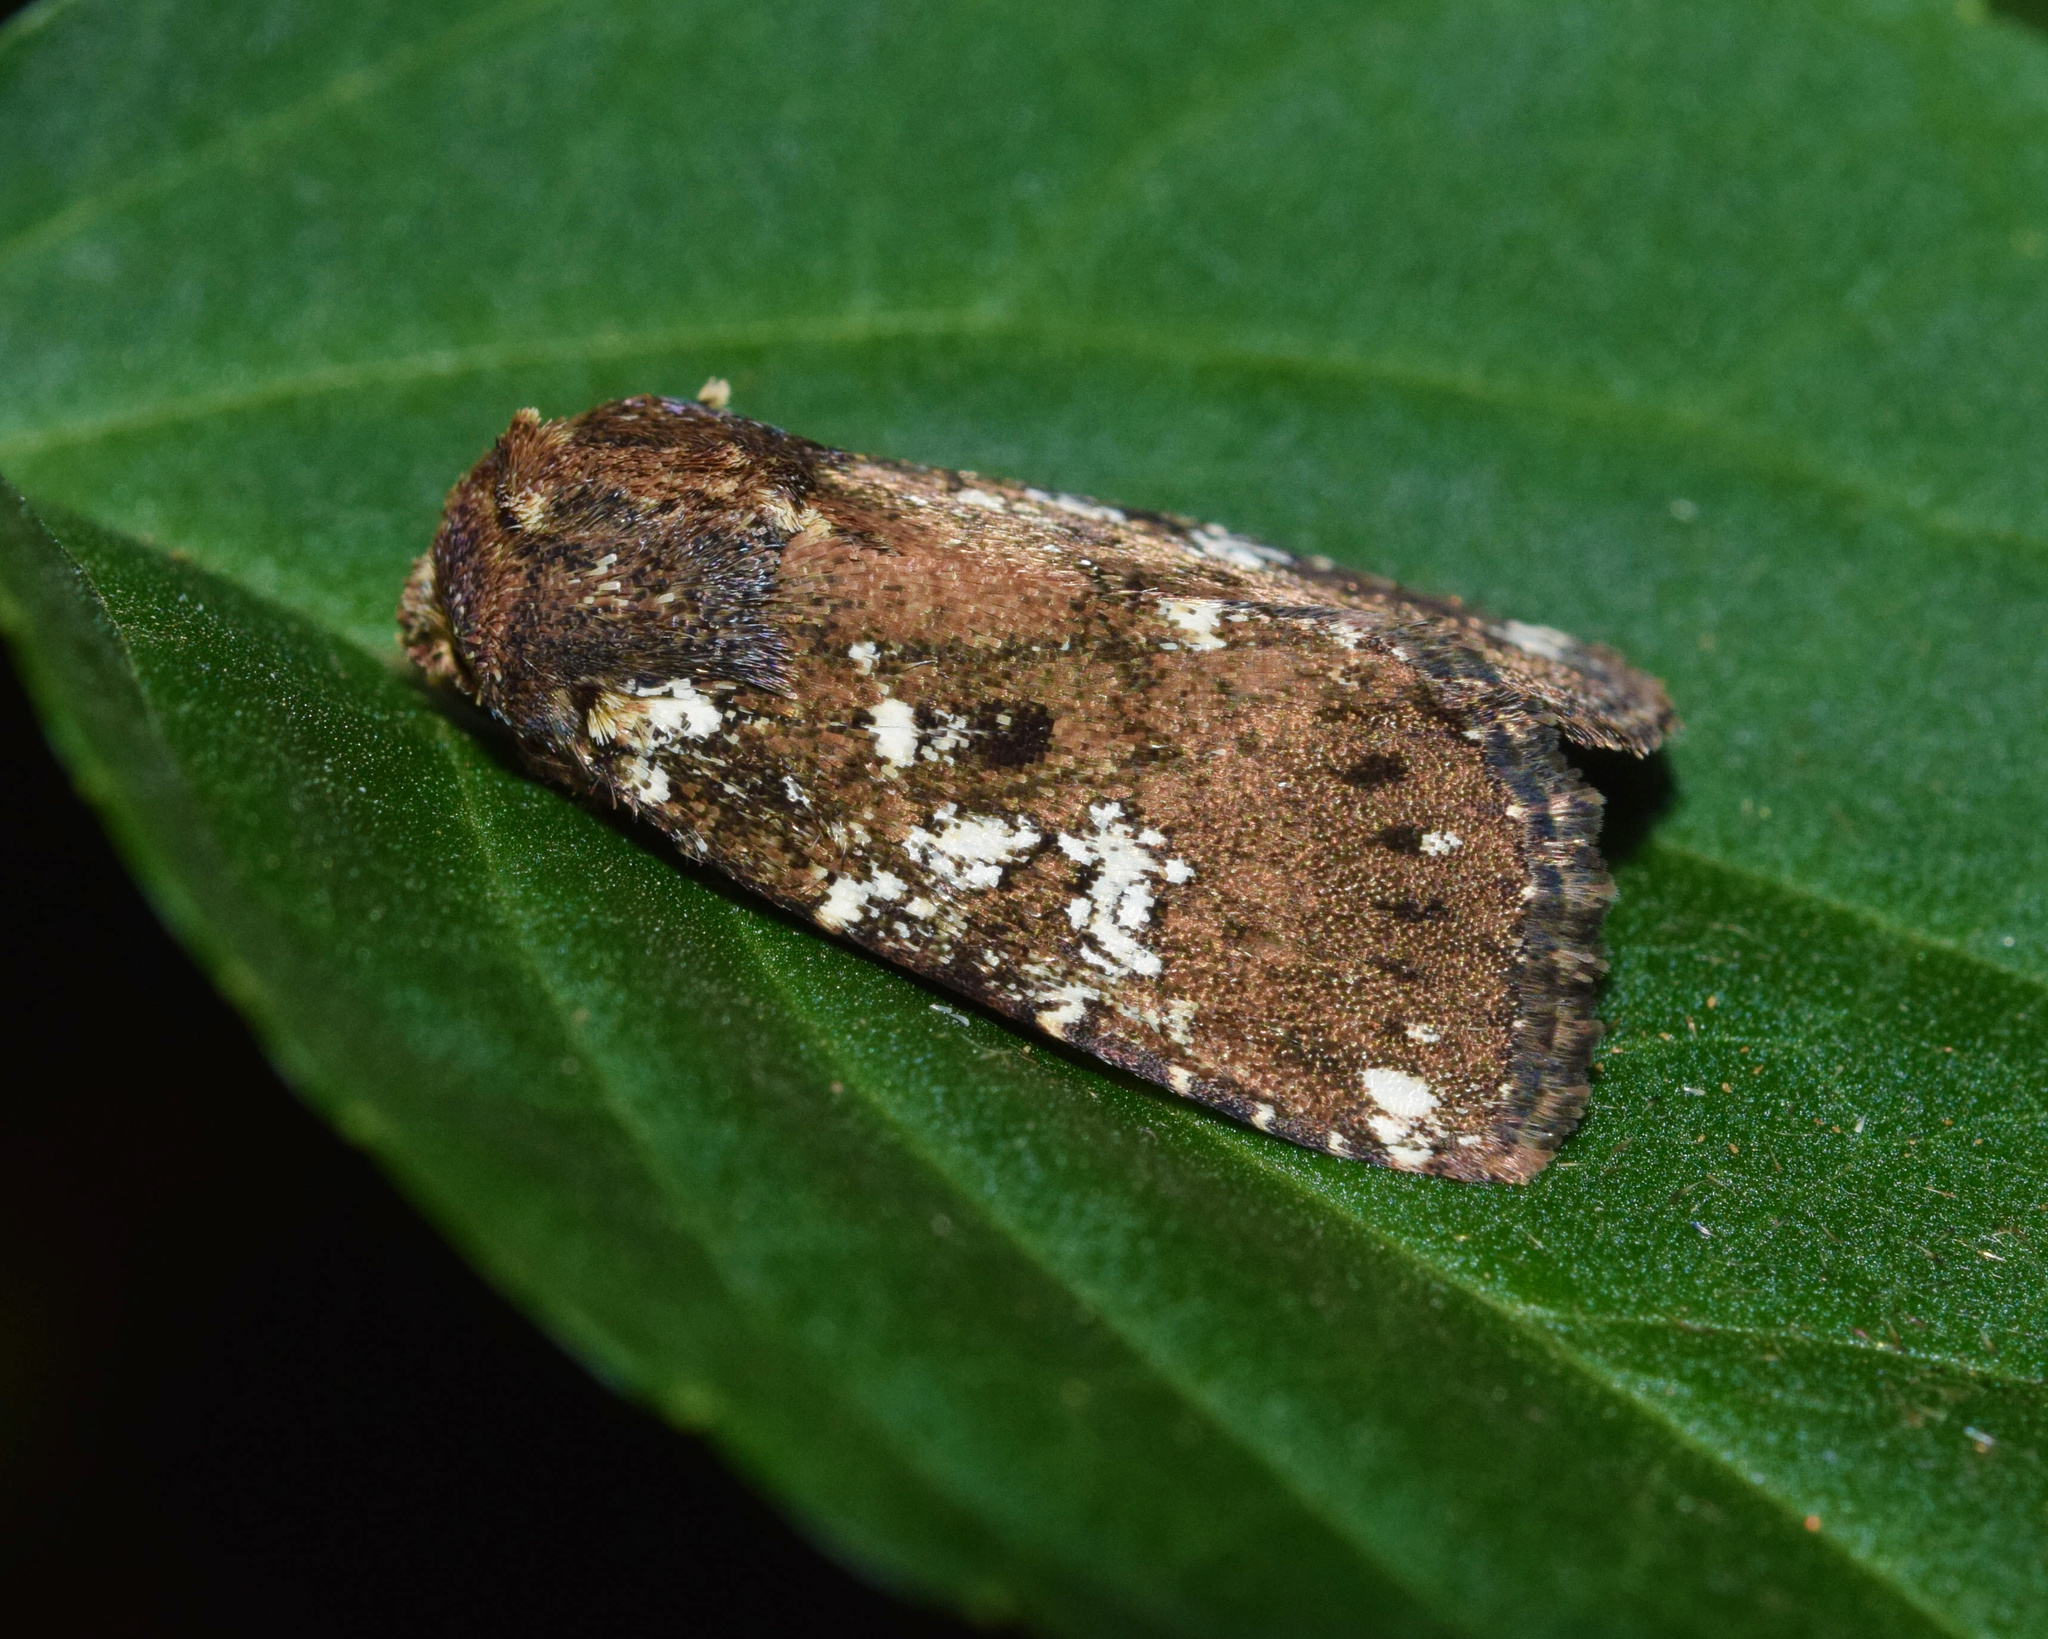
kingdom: Animalia
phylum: Arthropoda
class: Insecta
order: Lepidoptera
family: Noctuidae
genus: Feliniopsis
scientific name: Feliniopsis africana
